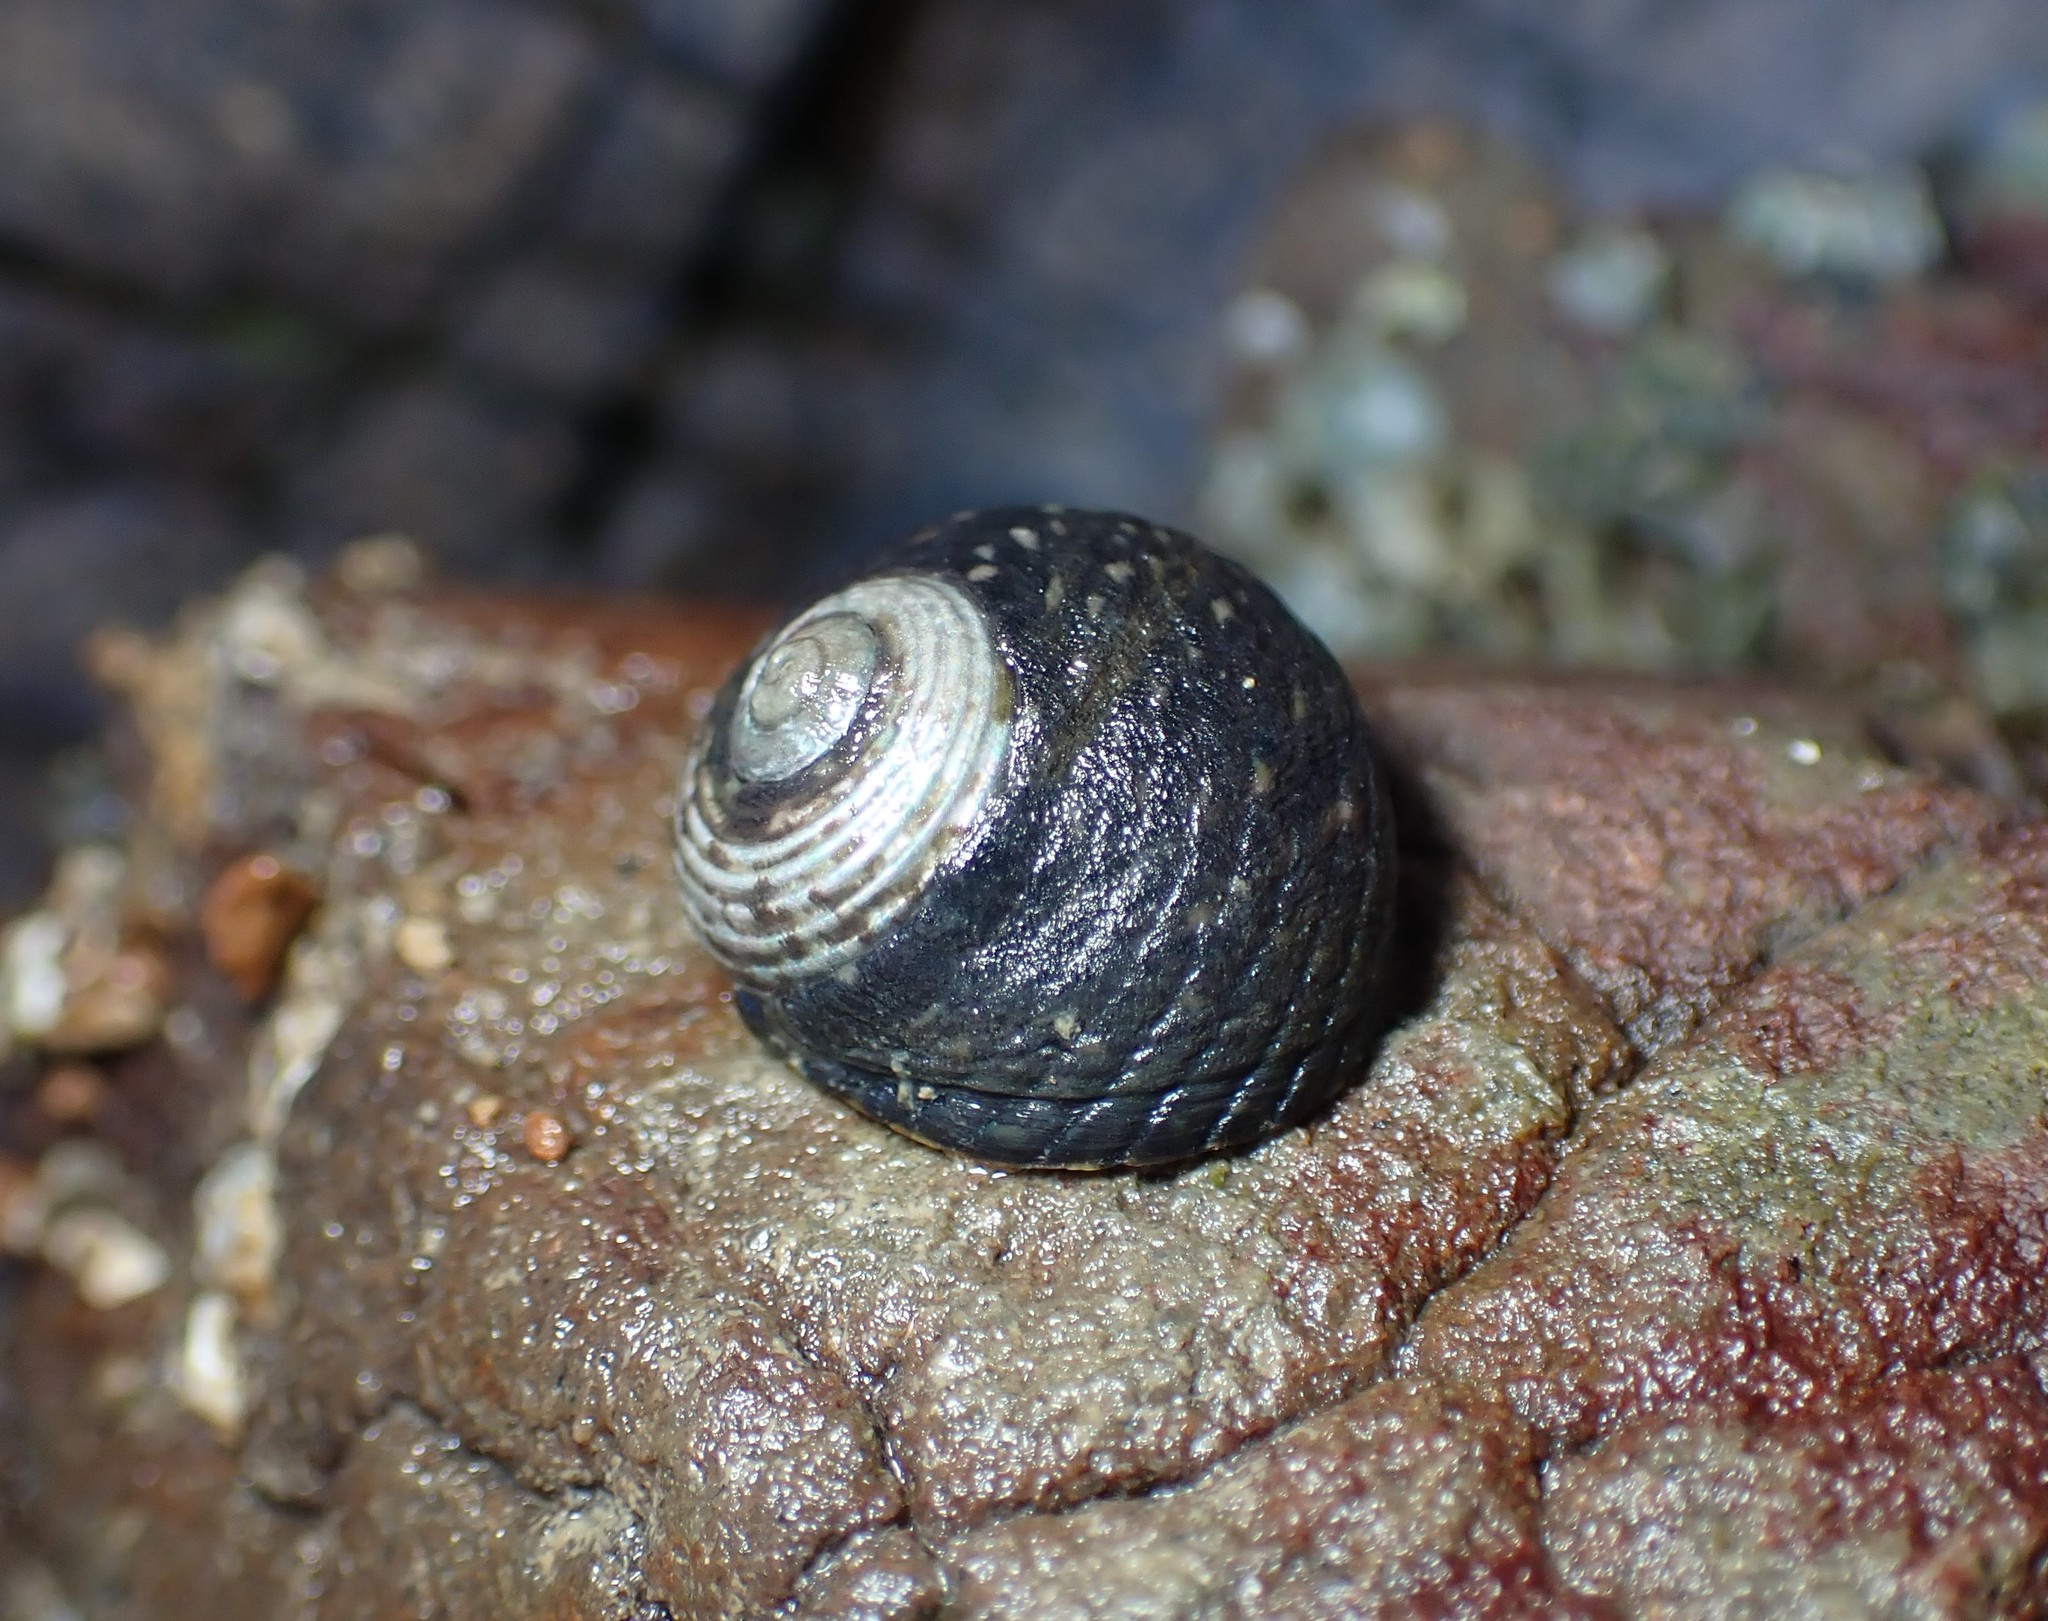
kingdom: Animalia
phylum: Mollusca
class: Gastropoda
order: Trochida
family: Trochidae
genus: Diloma
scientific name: Diloma zelandicum
